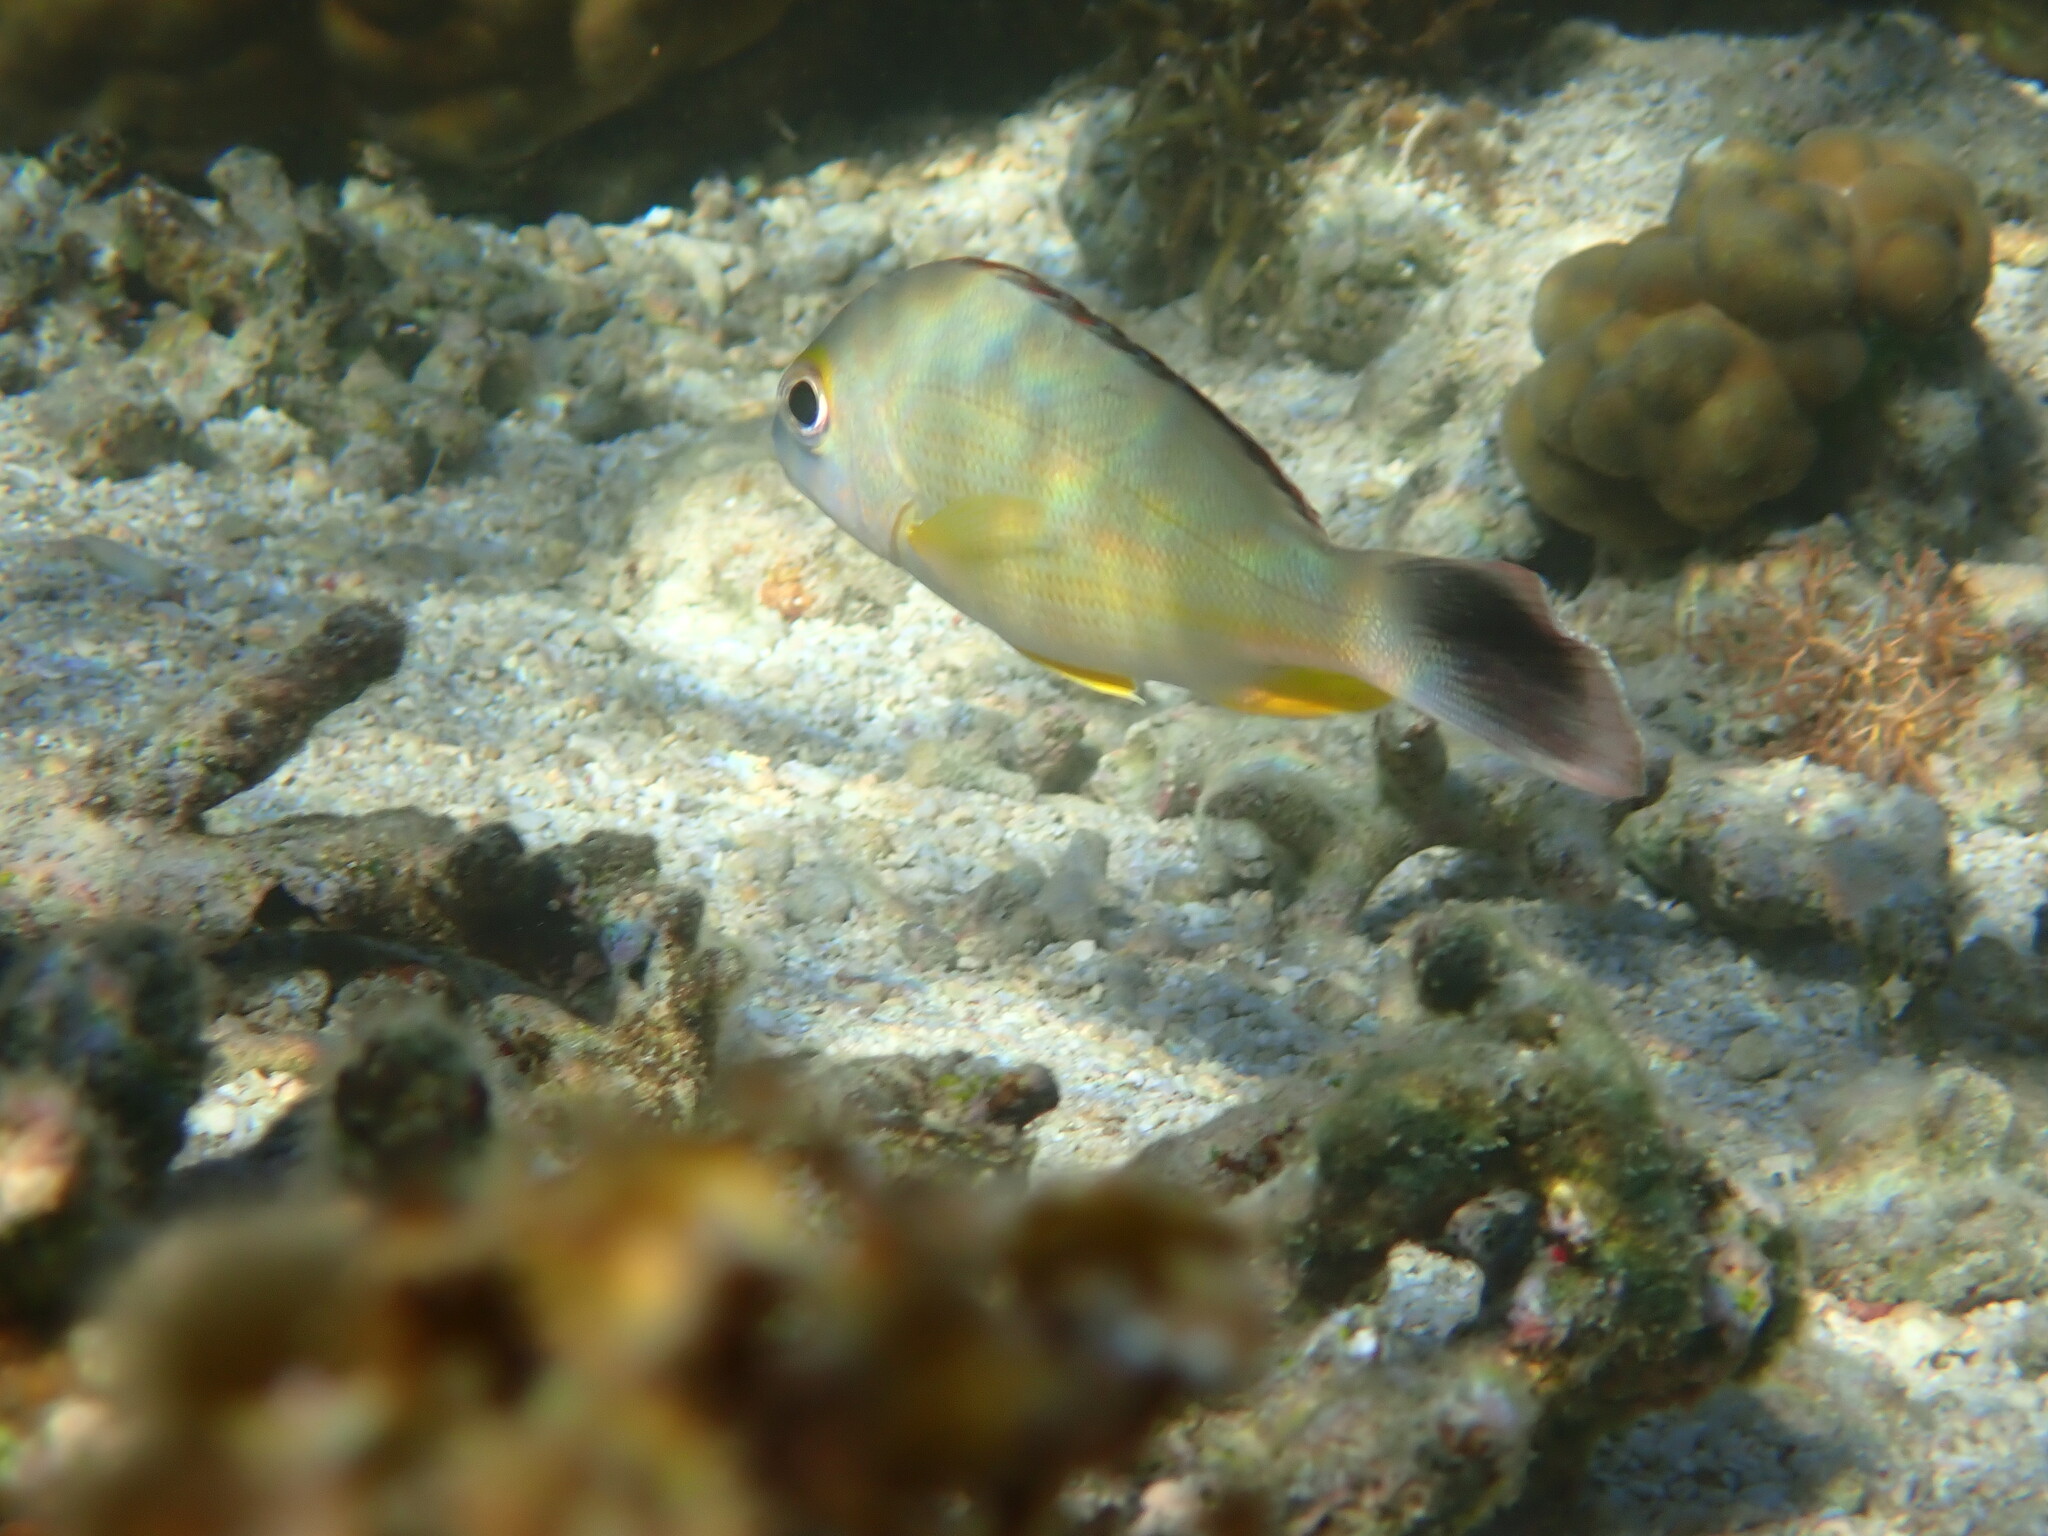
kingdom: Animalia
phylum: Chordata
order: Perciformes
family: Lutjanidae
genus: Lutjanus
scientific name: Lutjanus fulvus
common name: Blacktail snapper
